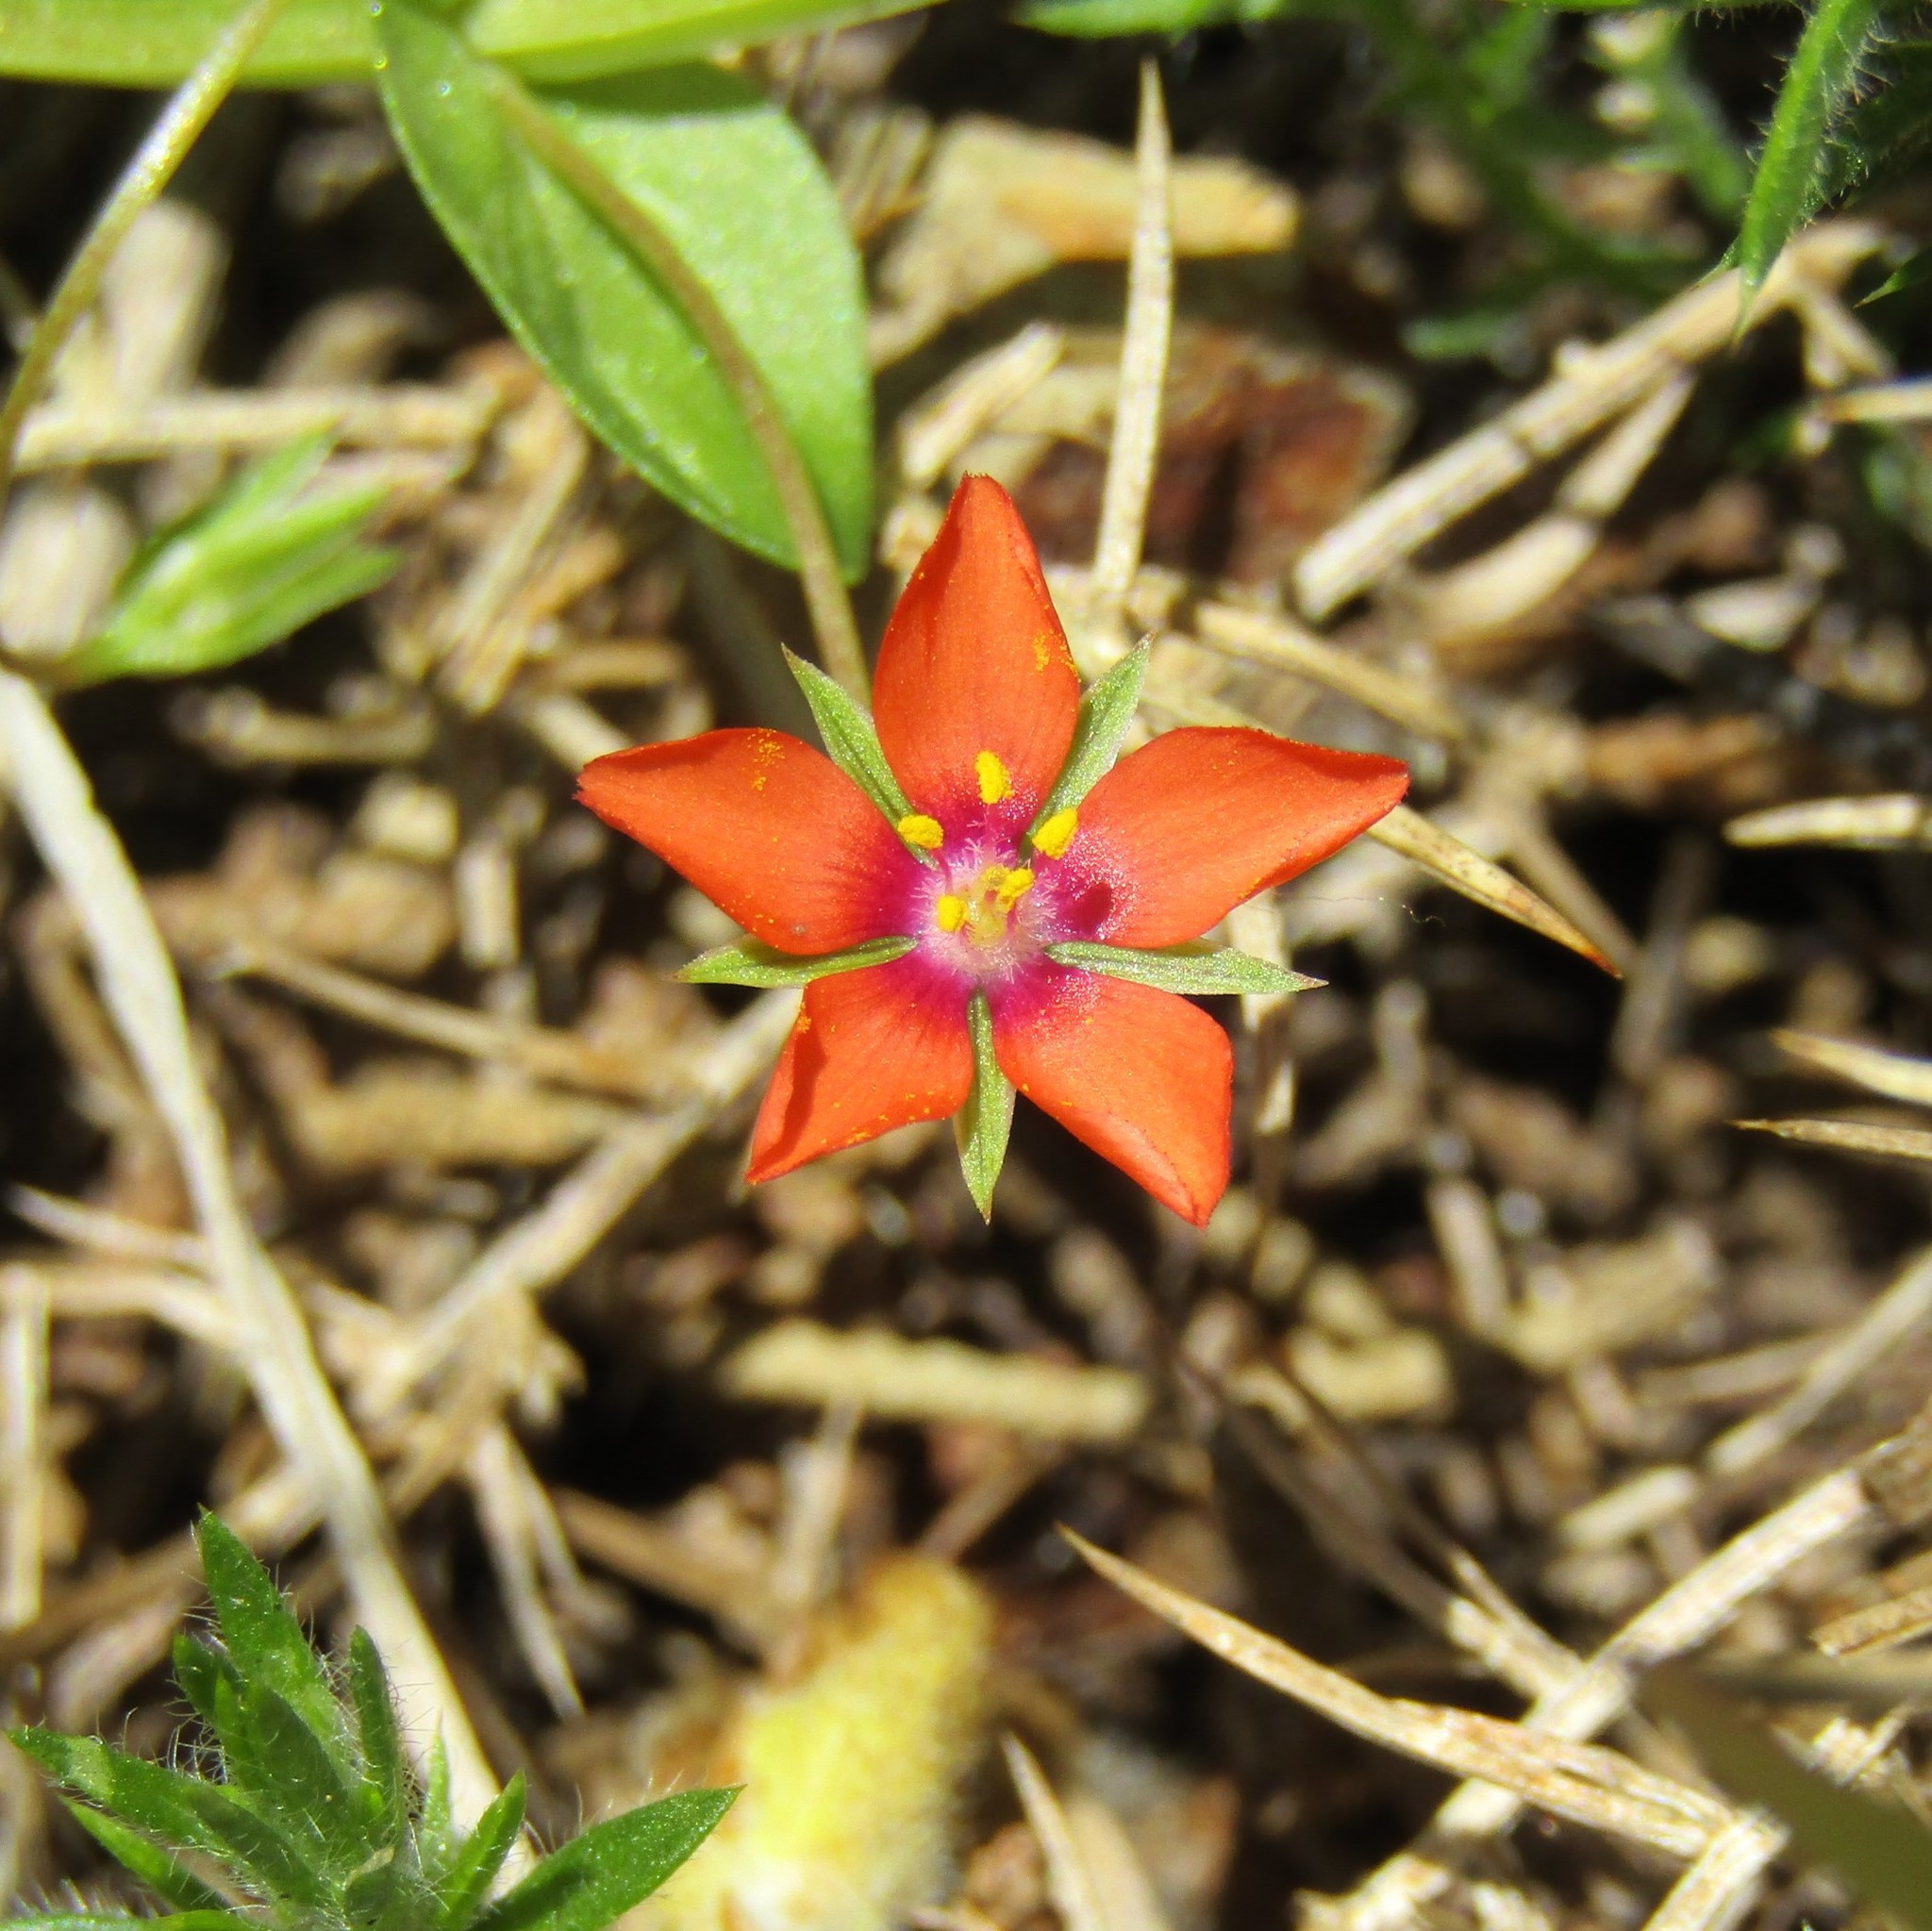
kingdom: Plantae
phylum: Tracheophyta
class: Magnoliopsida
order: Ericales
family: Primulaceae
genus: Lysimachia
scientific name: Lysimachia arvensis
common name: Scarlet pimpernel
